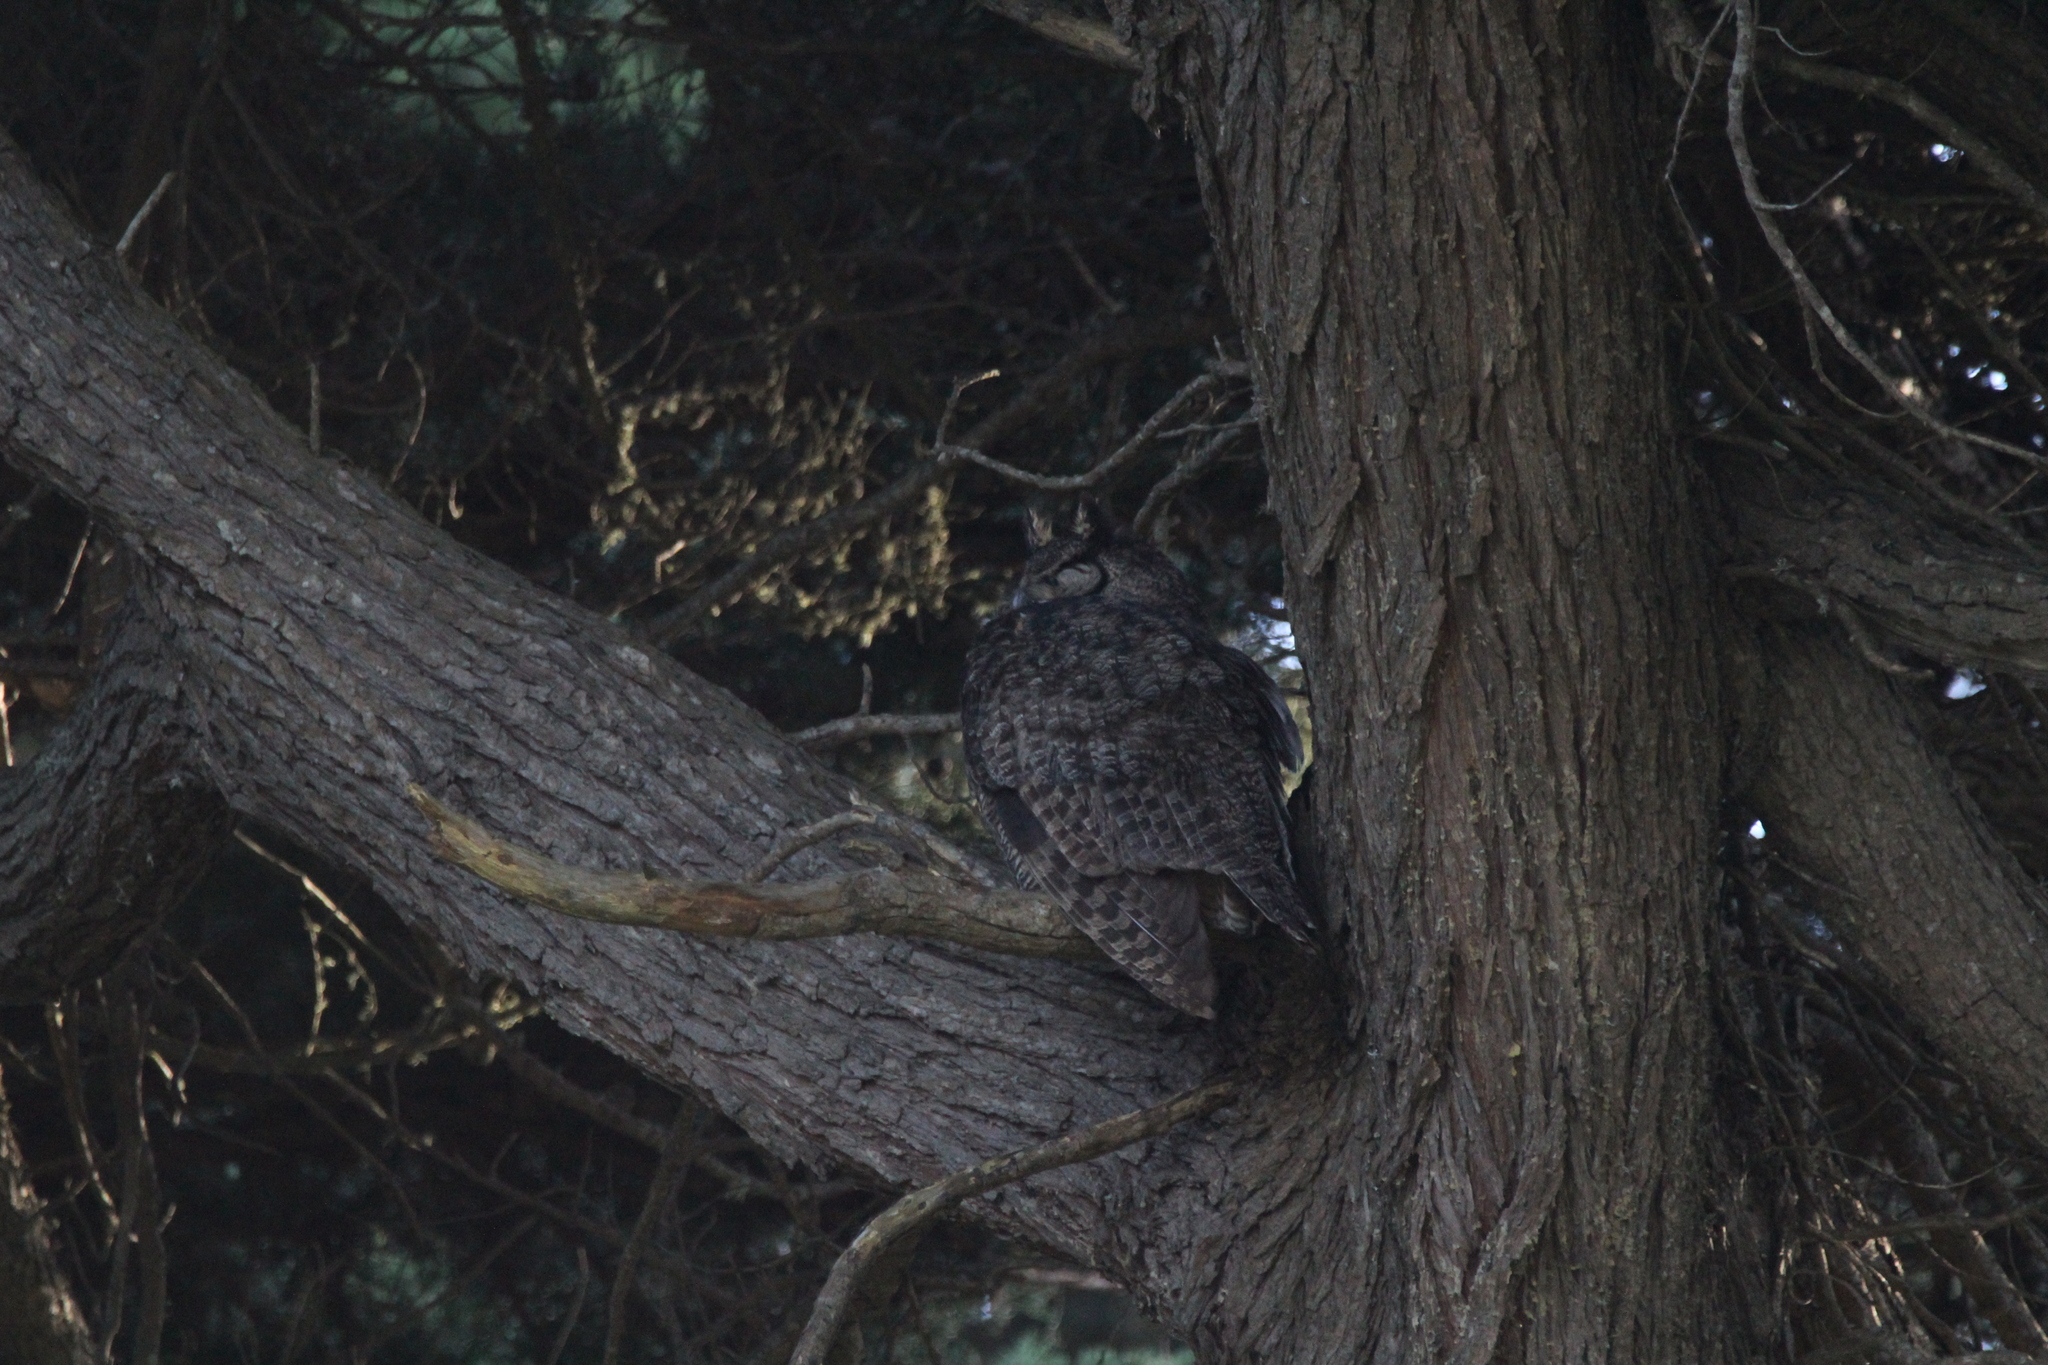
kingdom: Animalia
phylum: Chordata
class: Aves
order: Strigiformes
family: Strigidae
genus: Bubo
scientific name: Bubo virginianus
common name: Great horned owl
